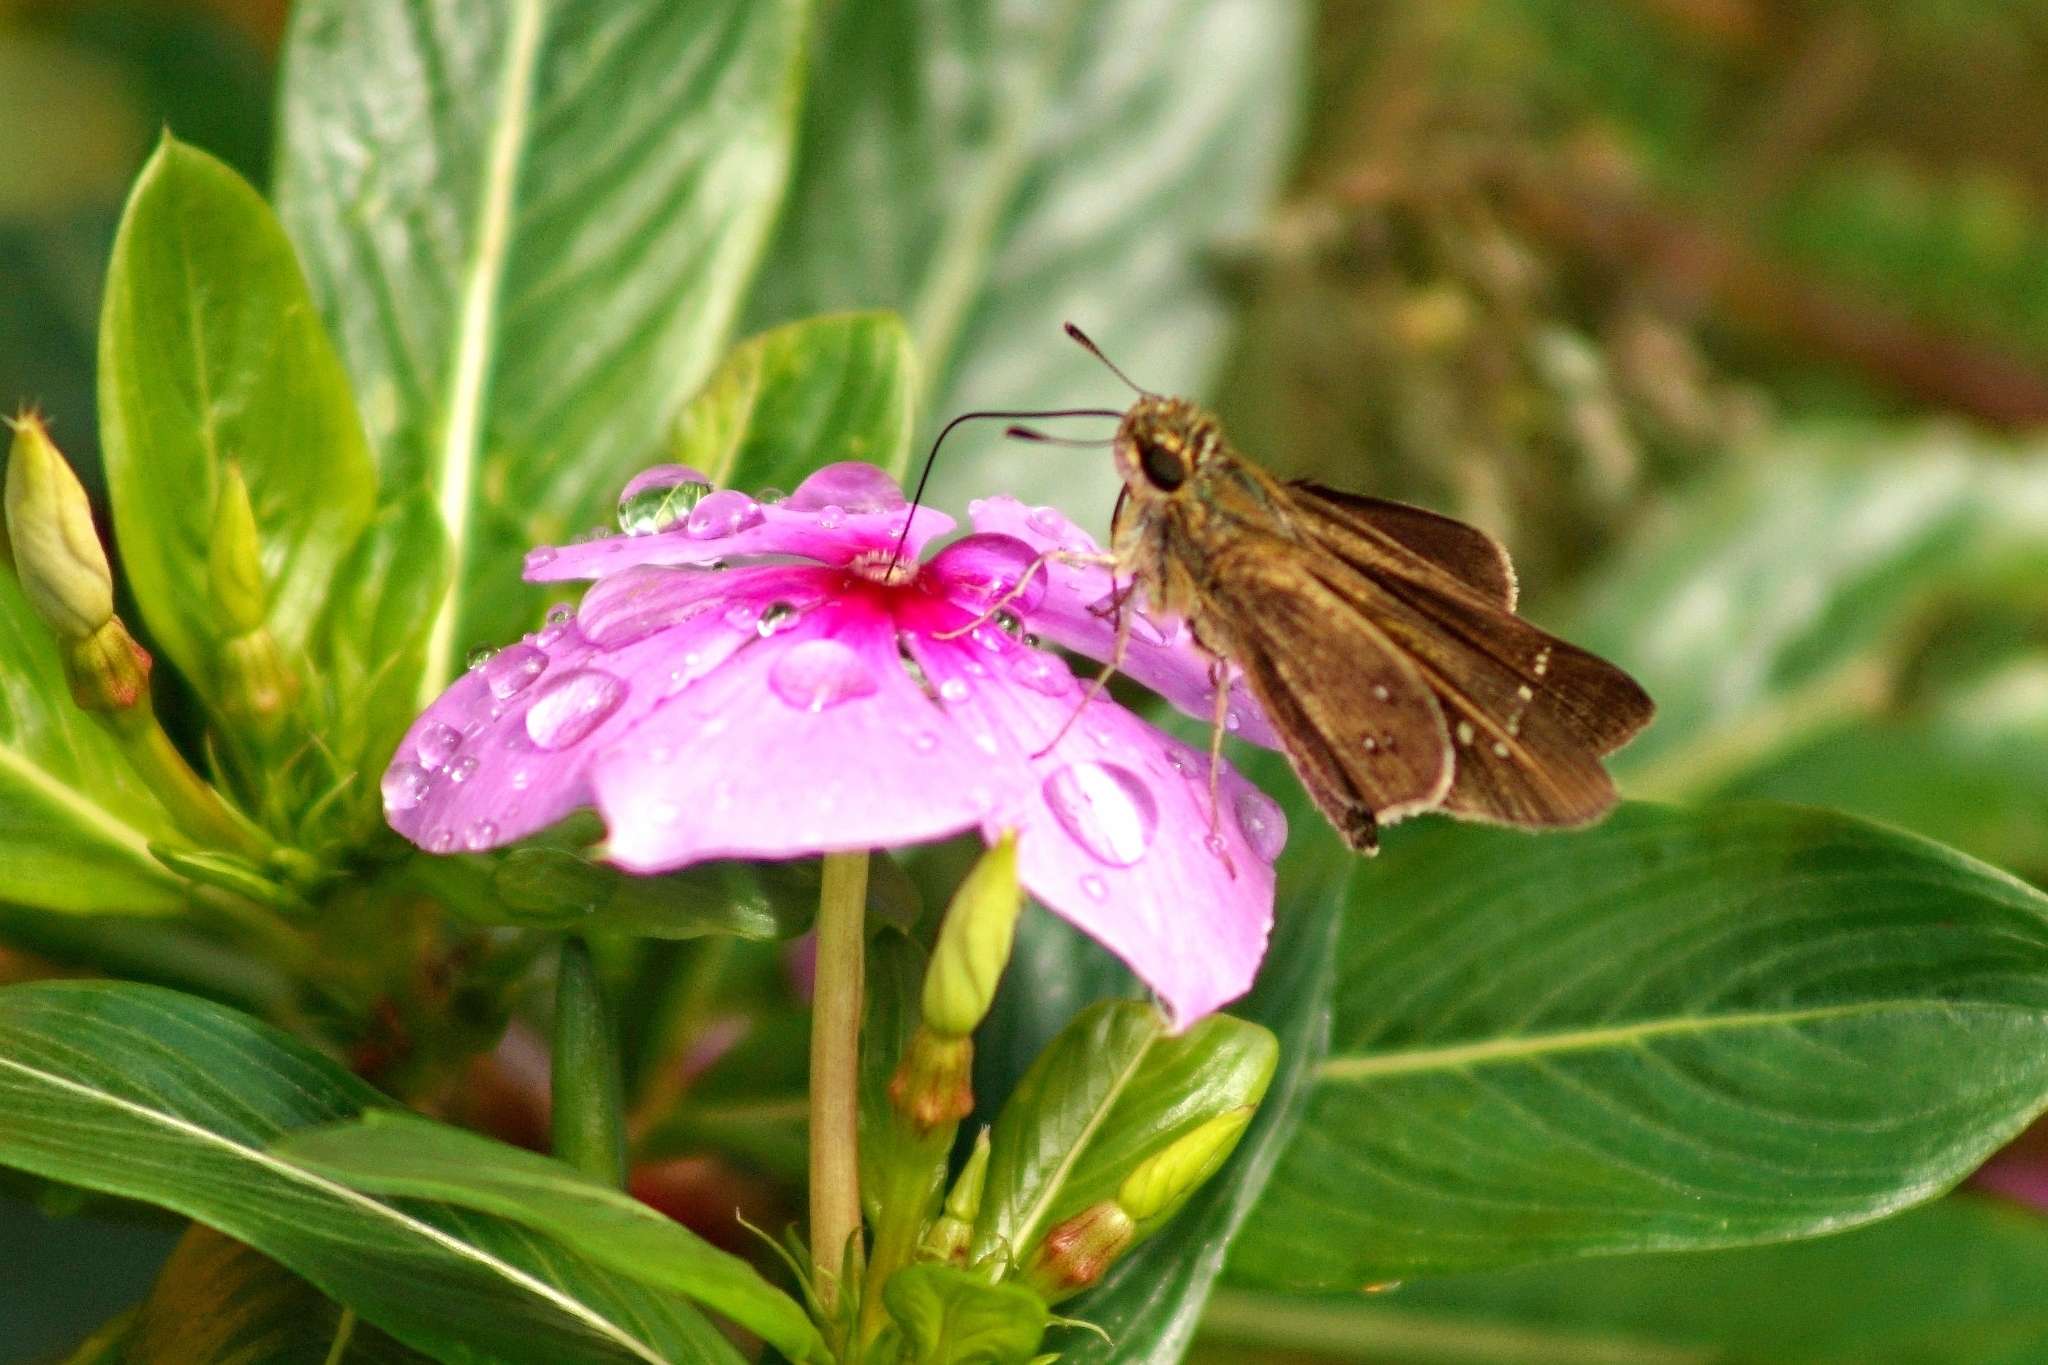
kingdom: Animalia
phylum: Arthropoda
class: Insecta
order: Lepidoptera
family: Hesperiidae
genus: Borbo
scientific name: Borbo borbonica
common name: Olive-haired swift
